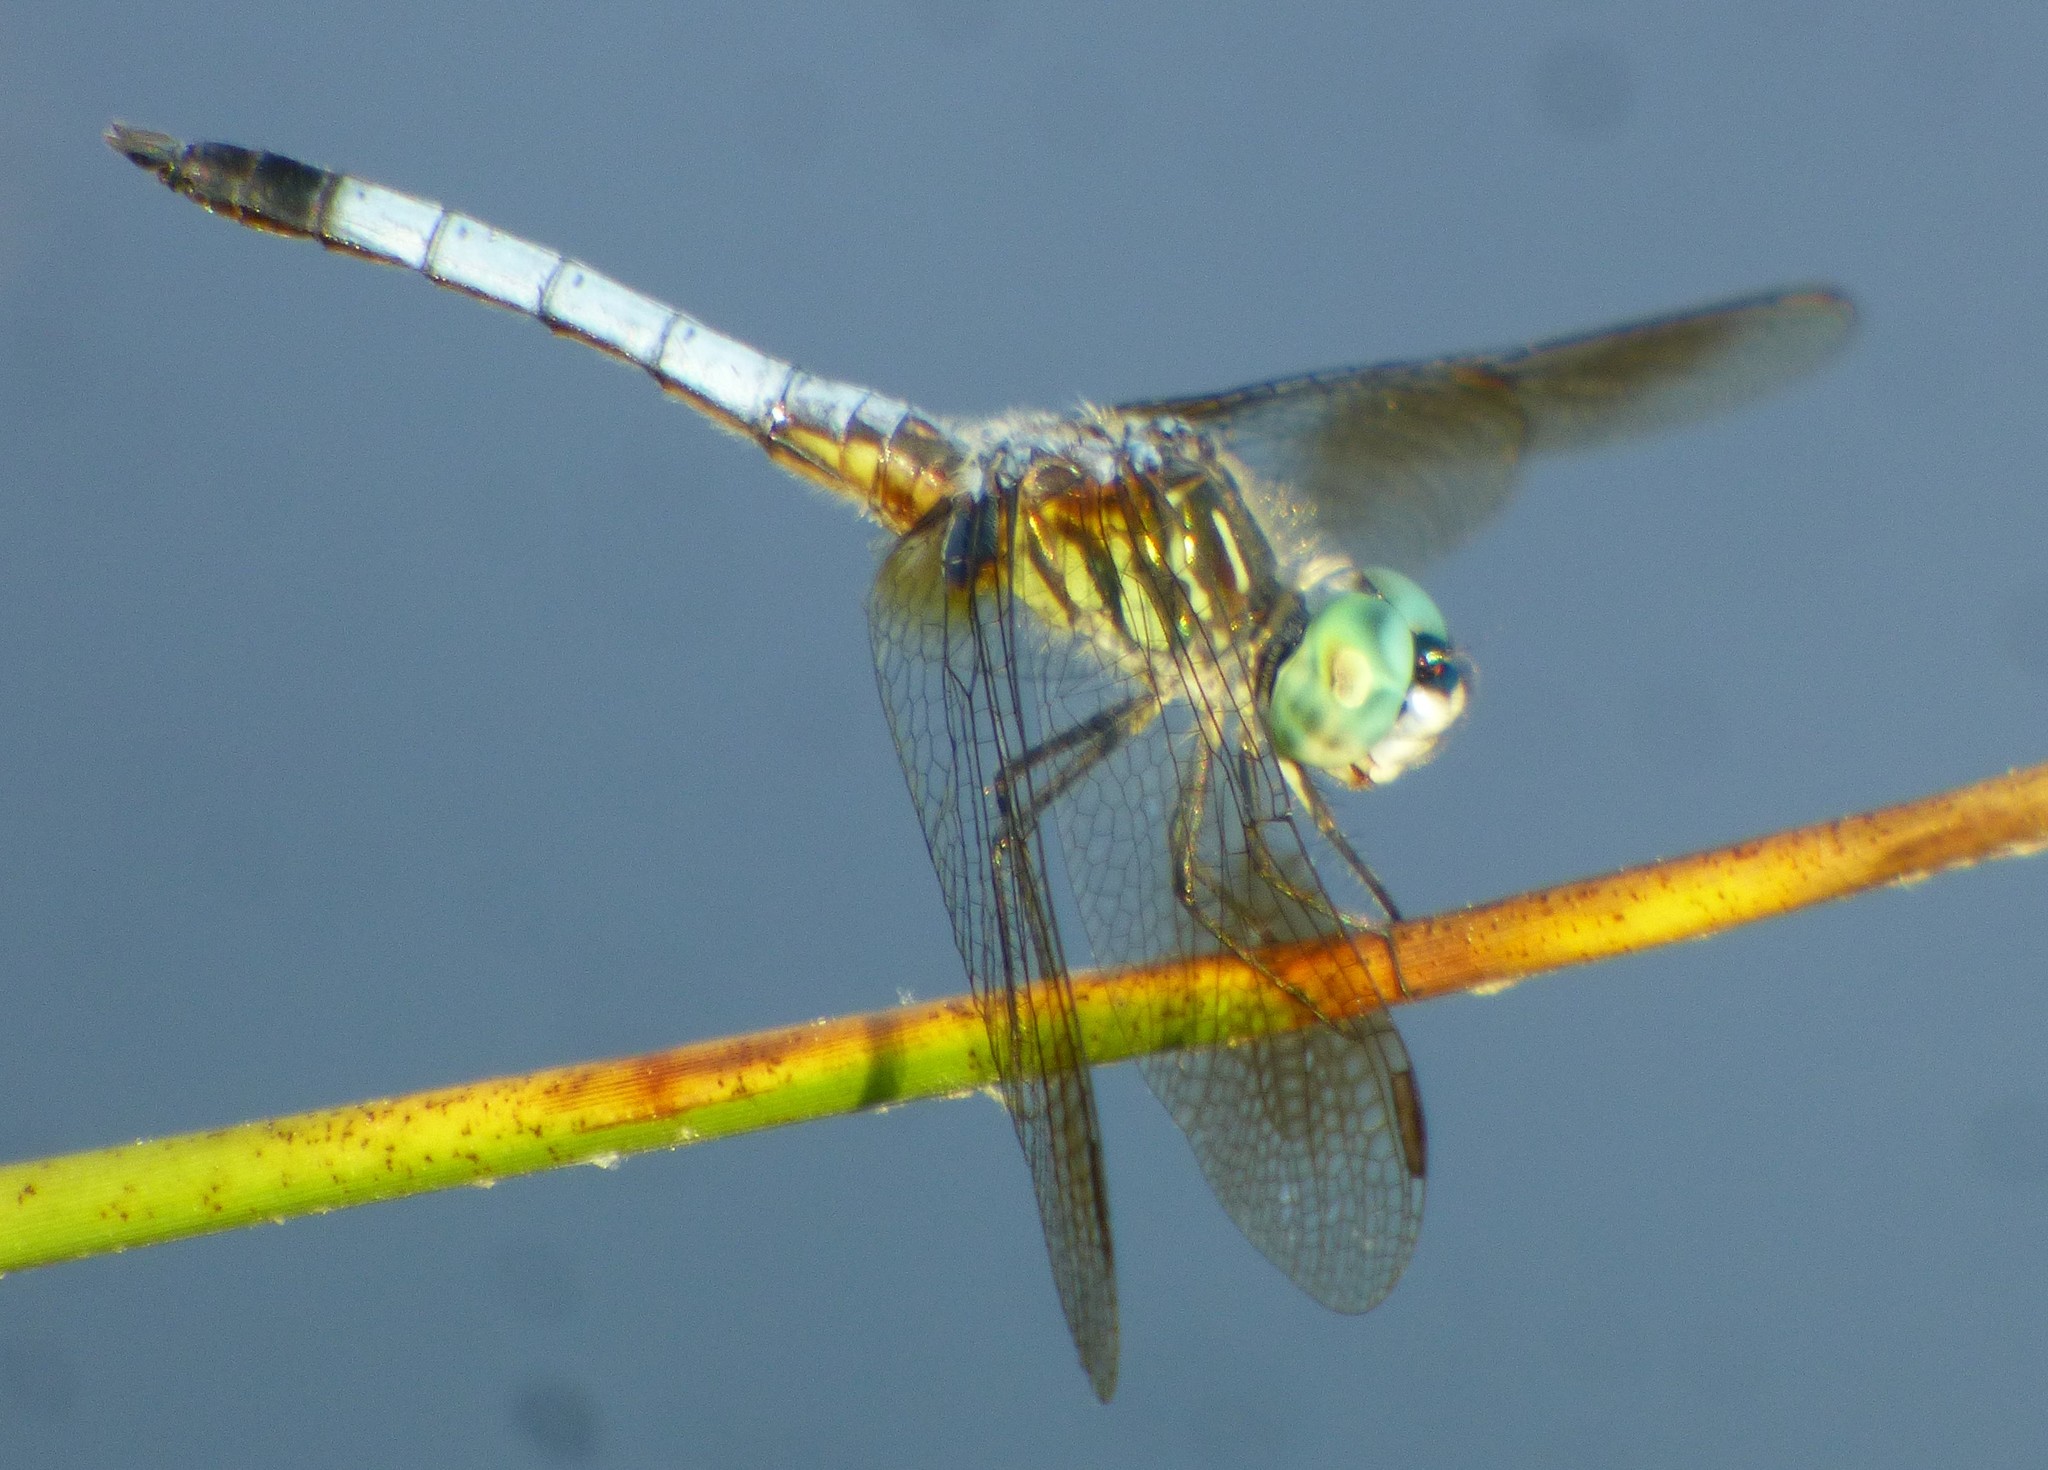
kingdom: Animalia
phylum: Arthropoda
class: Insecta
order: Odonata
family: Libellulidae
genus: Pachydiplax
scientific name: Pachydiplax longipennis
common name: Blue dasher
